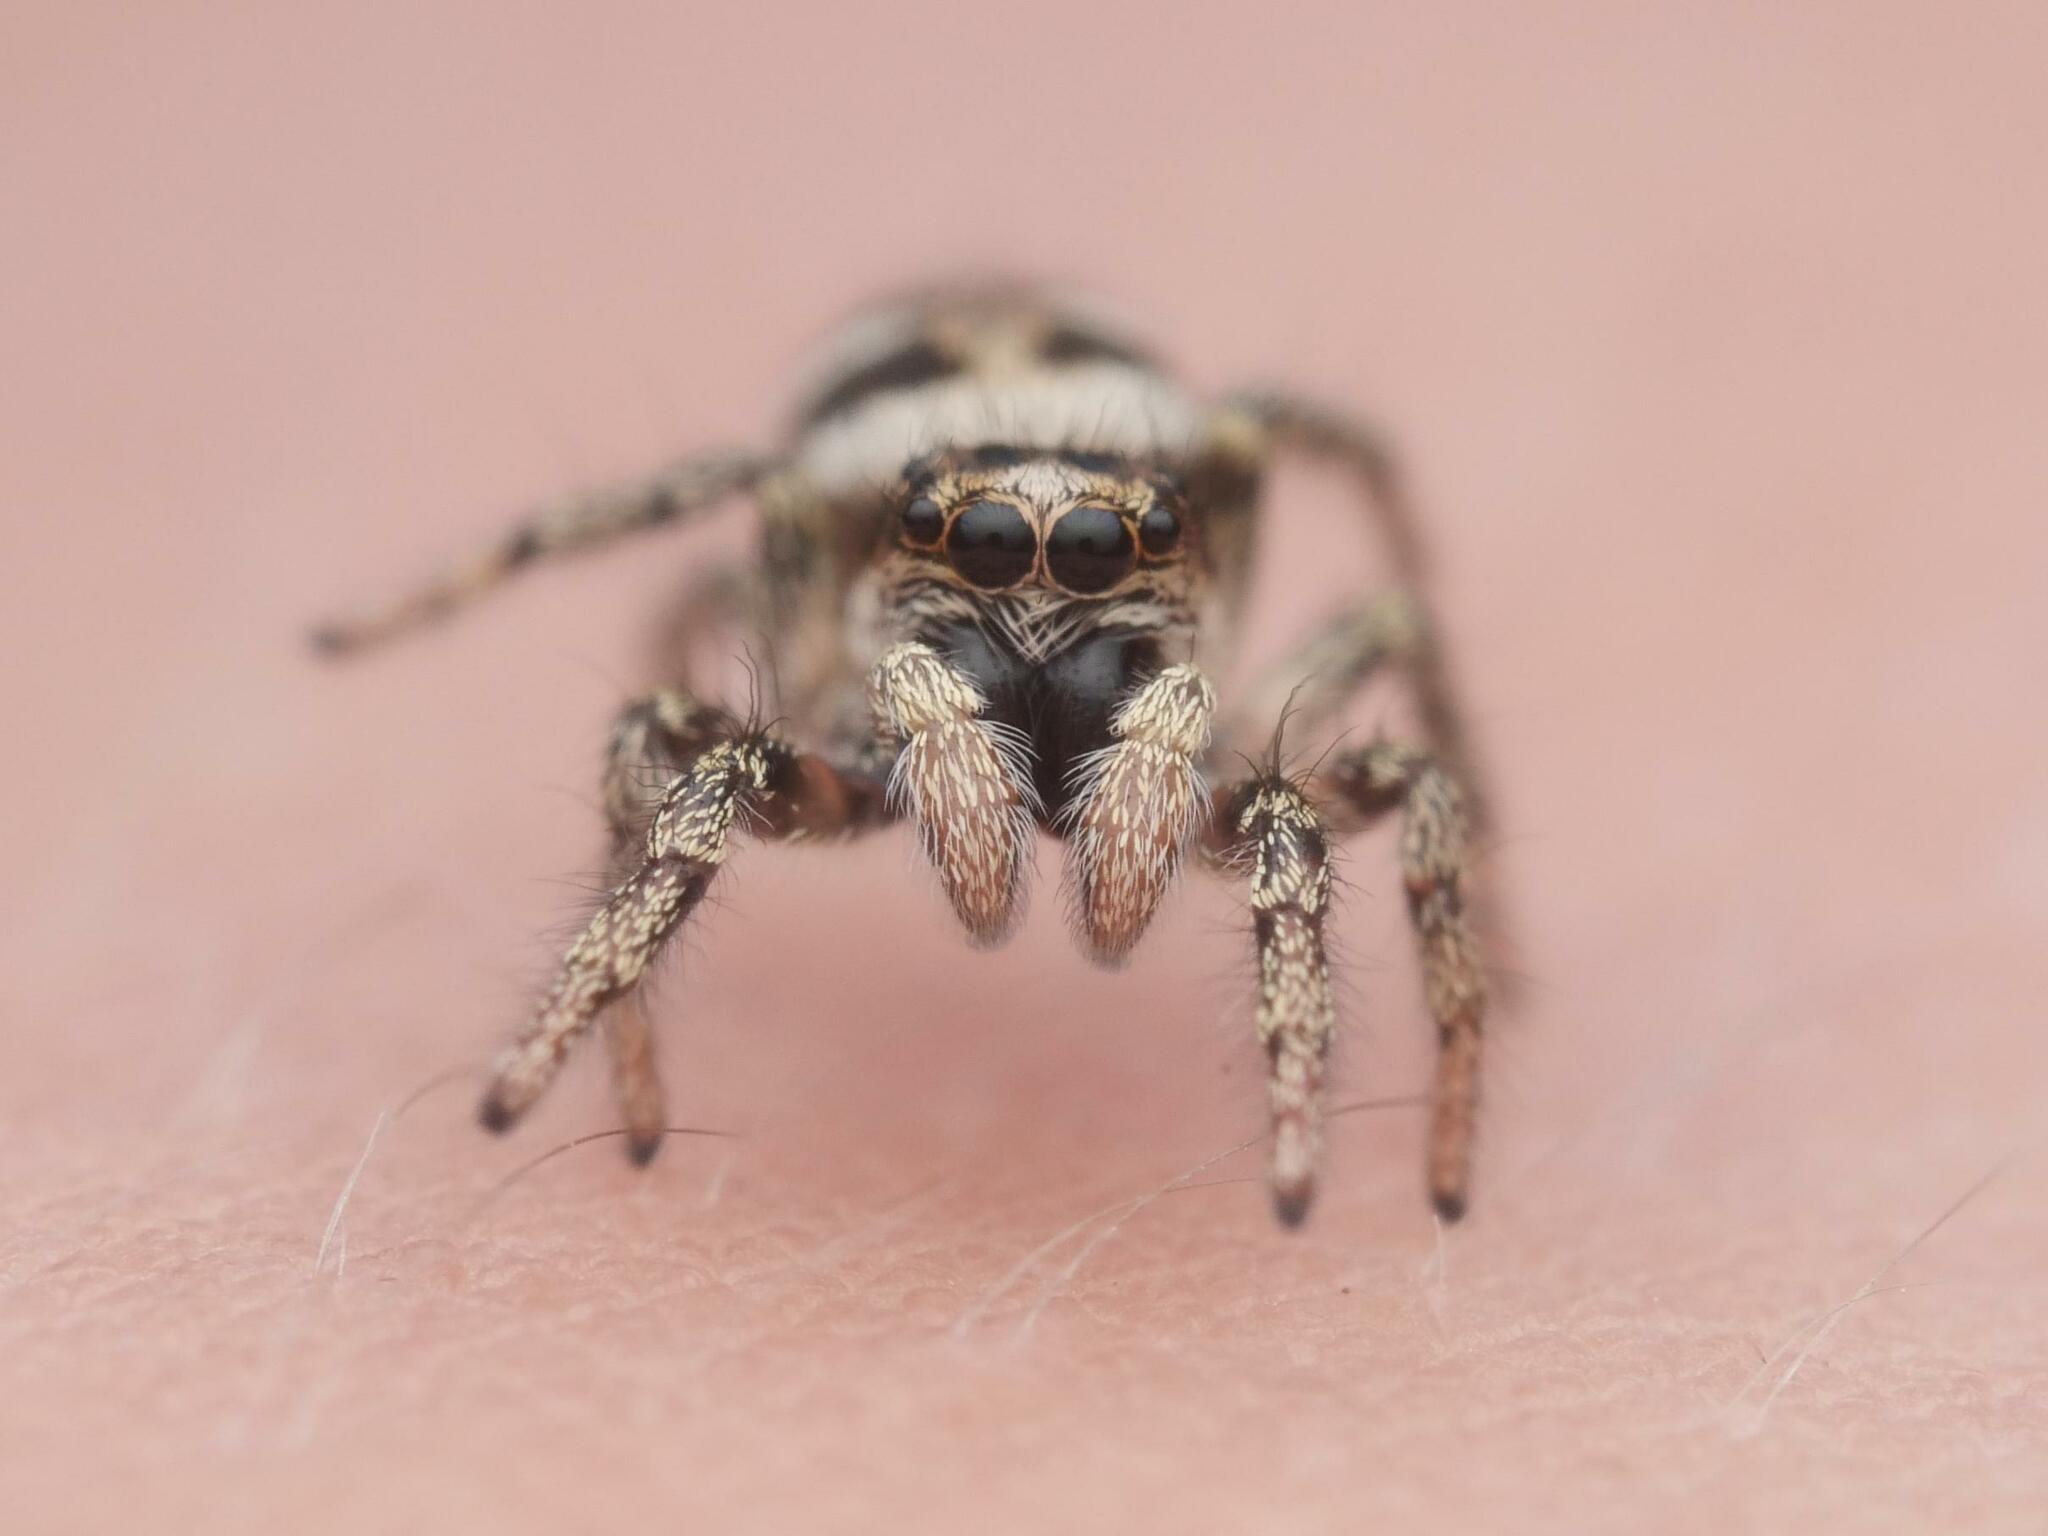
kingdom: Animalia
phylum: Arthropoda
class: Arachnida
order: Araneae
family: Salticidae
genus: Salticus
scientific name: Salticus scenicus
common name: Zebra jumper
